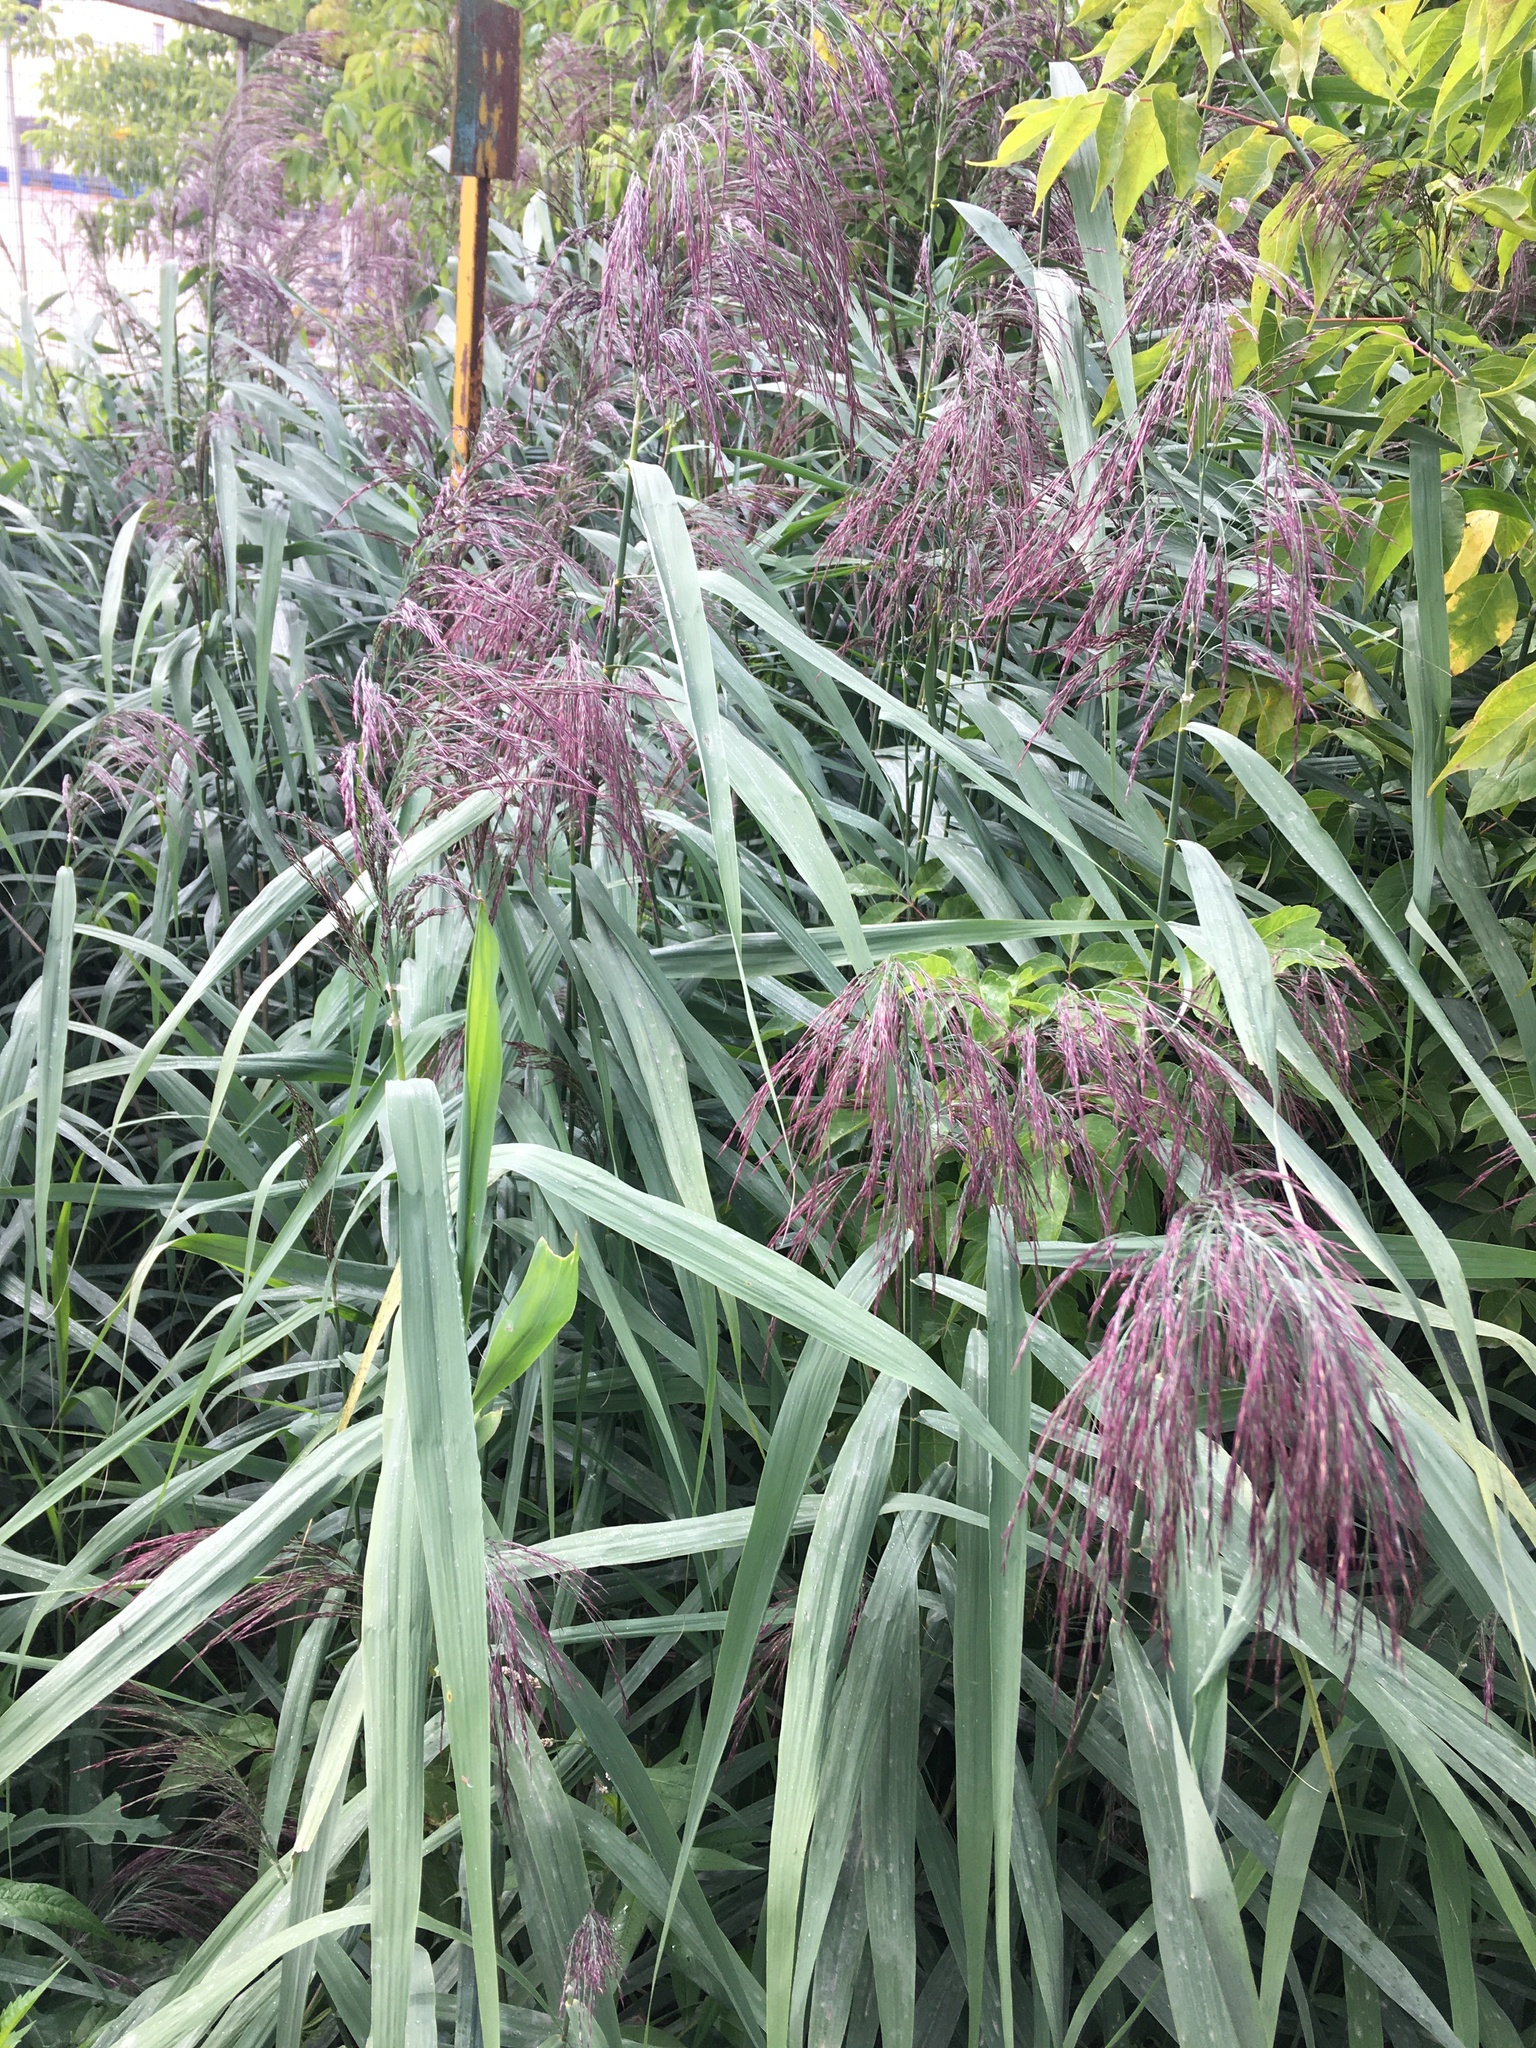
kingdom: Plantae
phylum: Tracheophyta
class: Liliopsida
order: Poales
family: Poaceae
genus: Phragmites
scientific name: Phragmites australis
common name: Common reed
